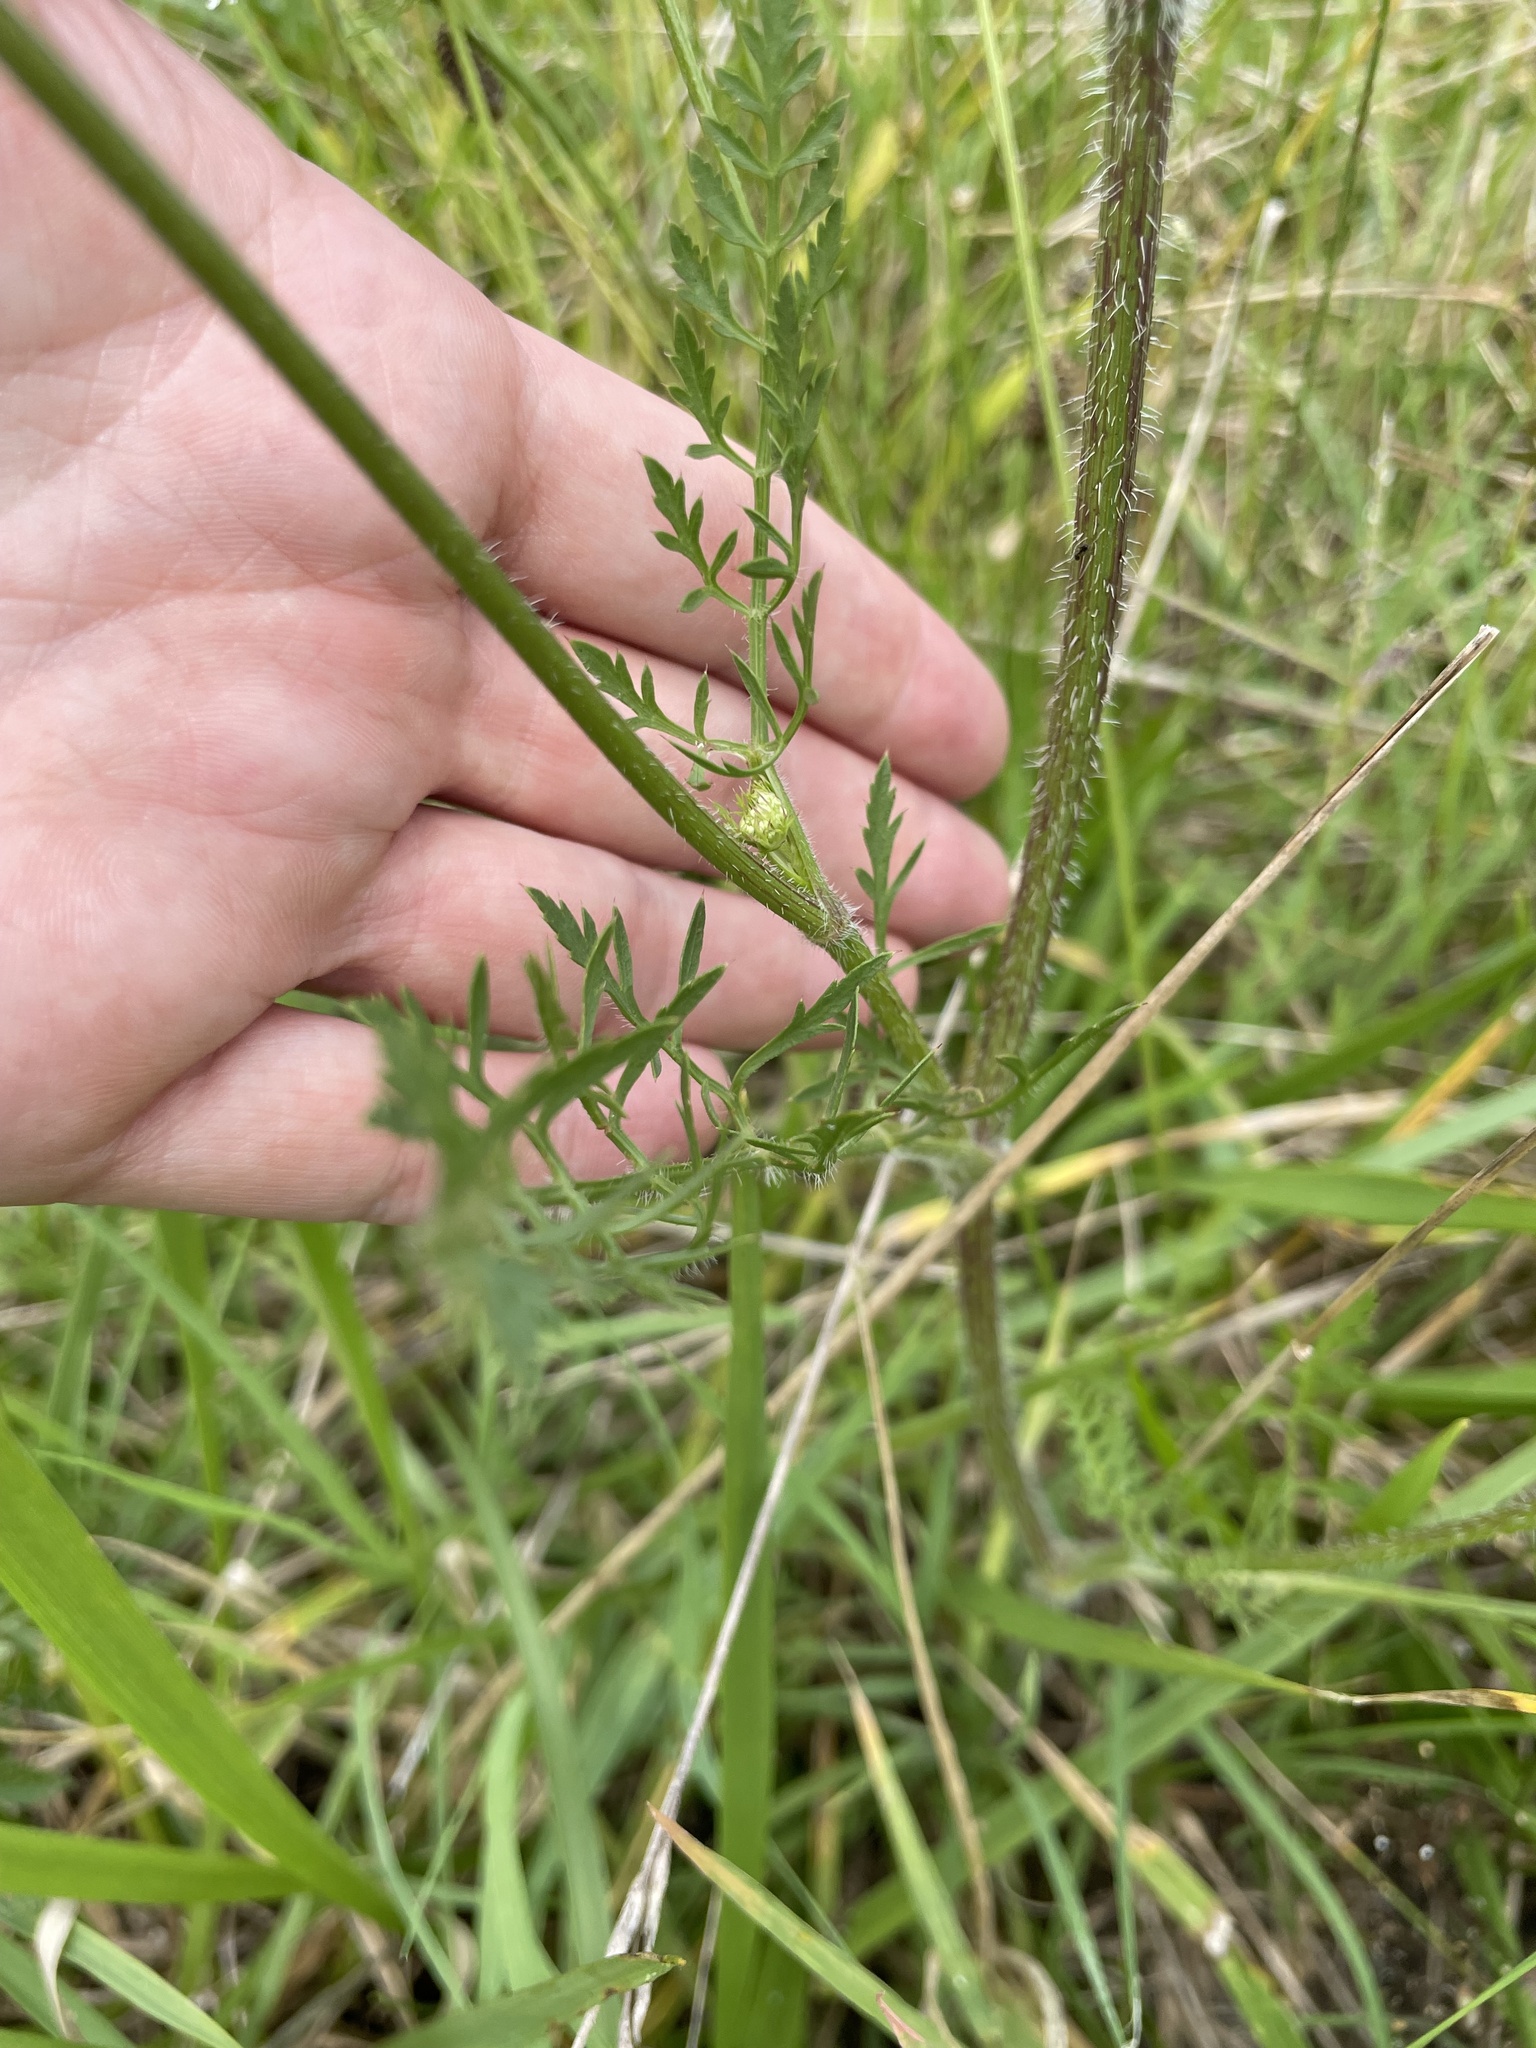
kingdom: Plantae
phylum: Tracheophyta
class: Magnoliopsida
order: Apiales
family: Apiaceae
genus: Daucus
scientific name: Daucus carota
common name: Wild carrot
